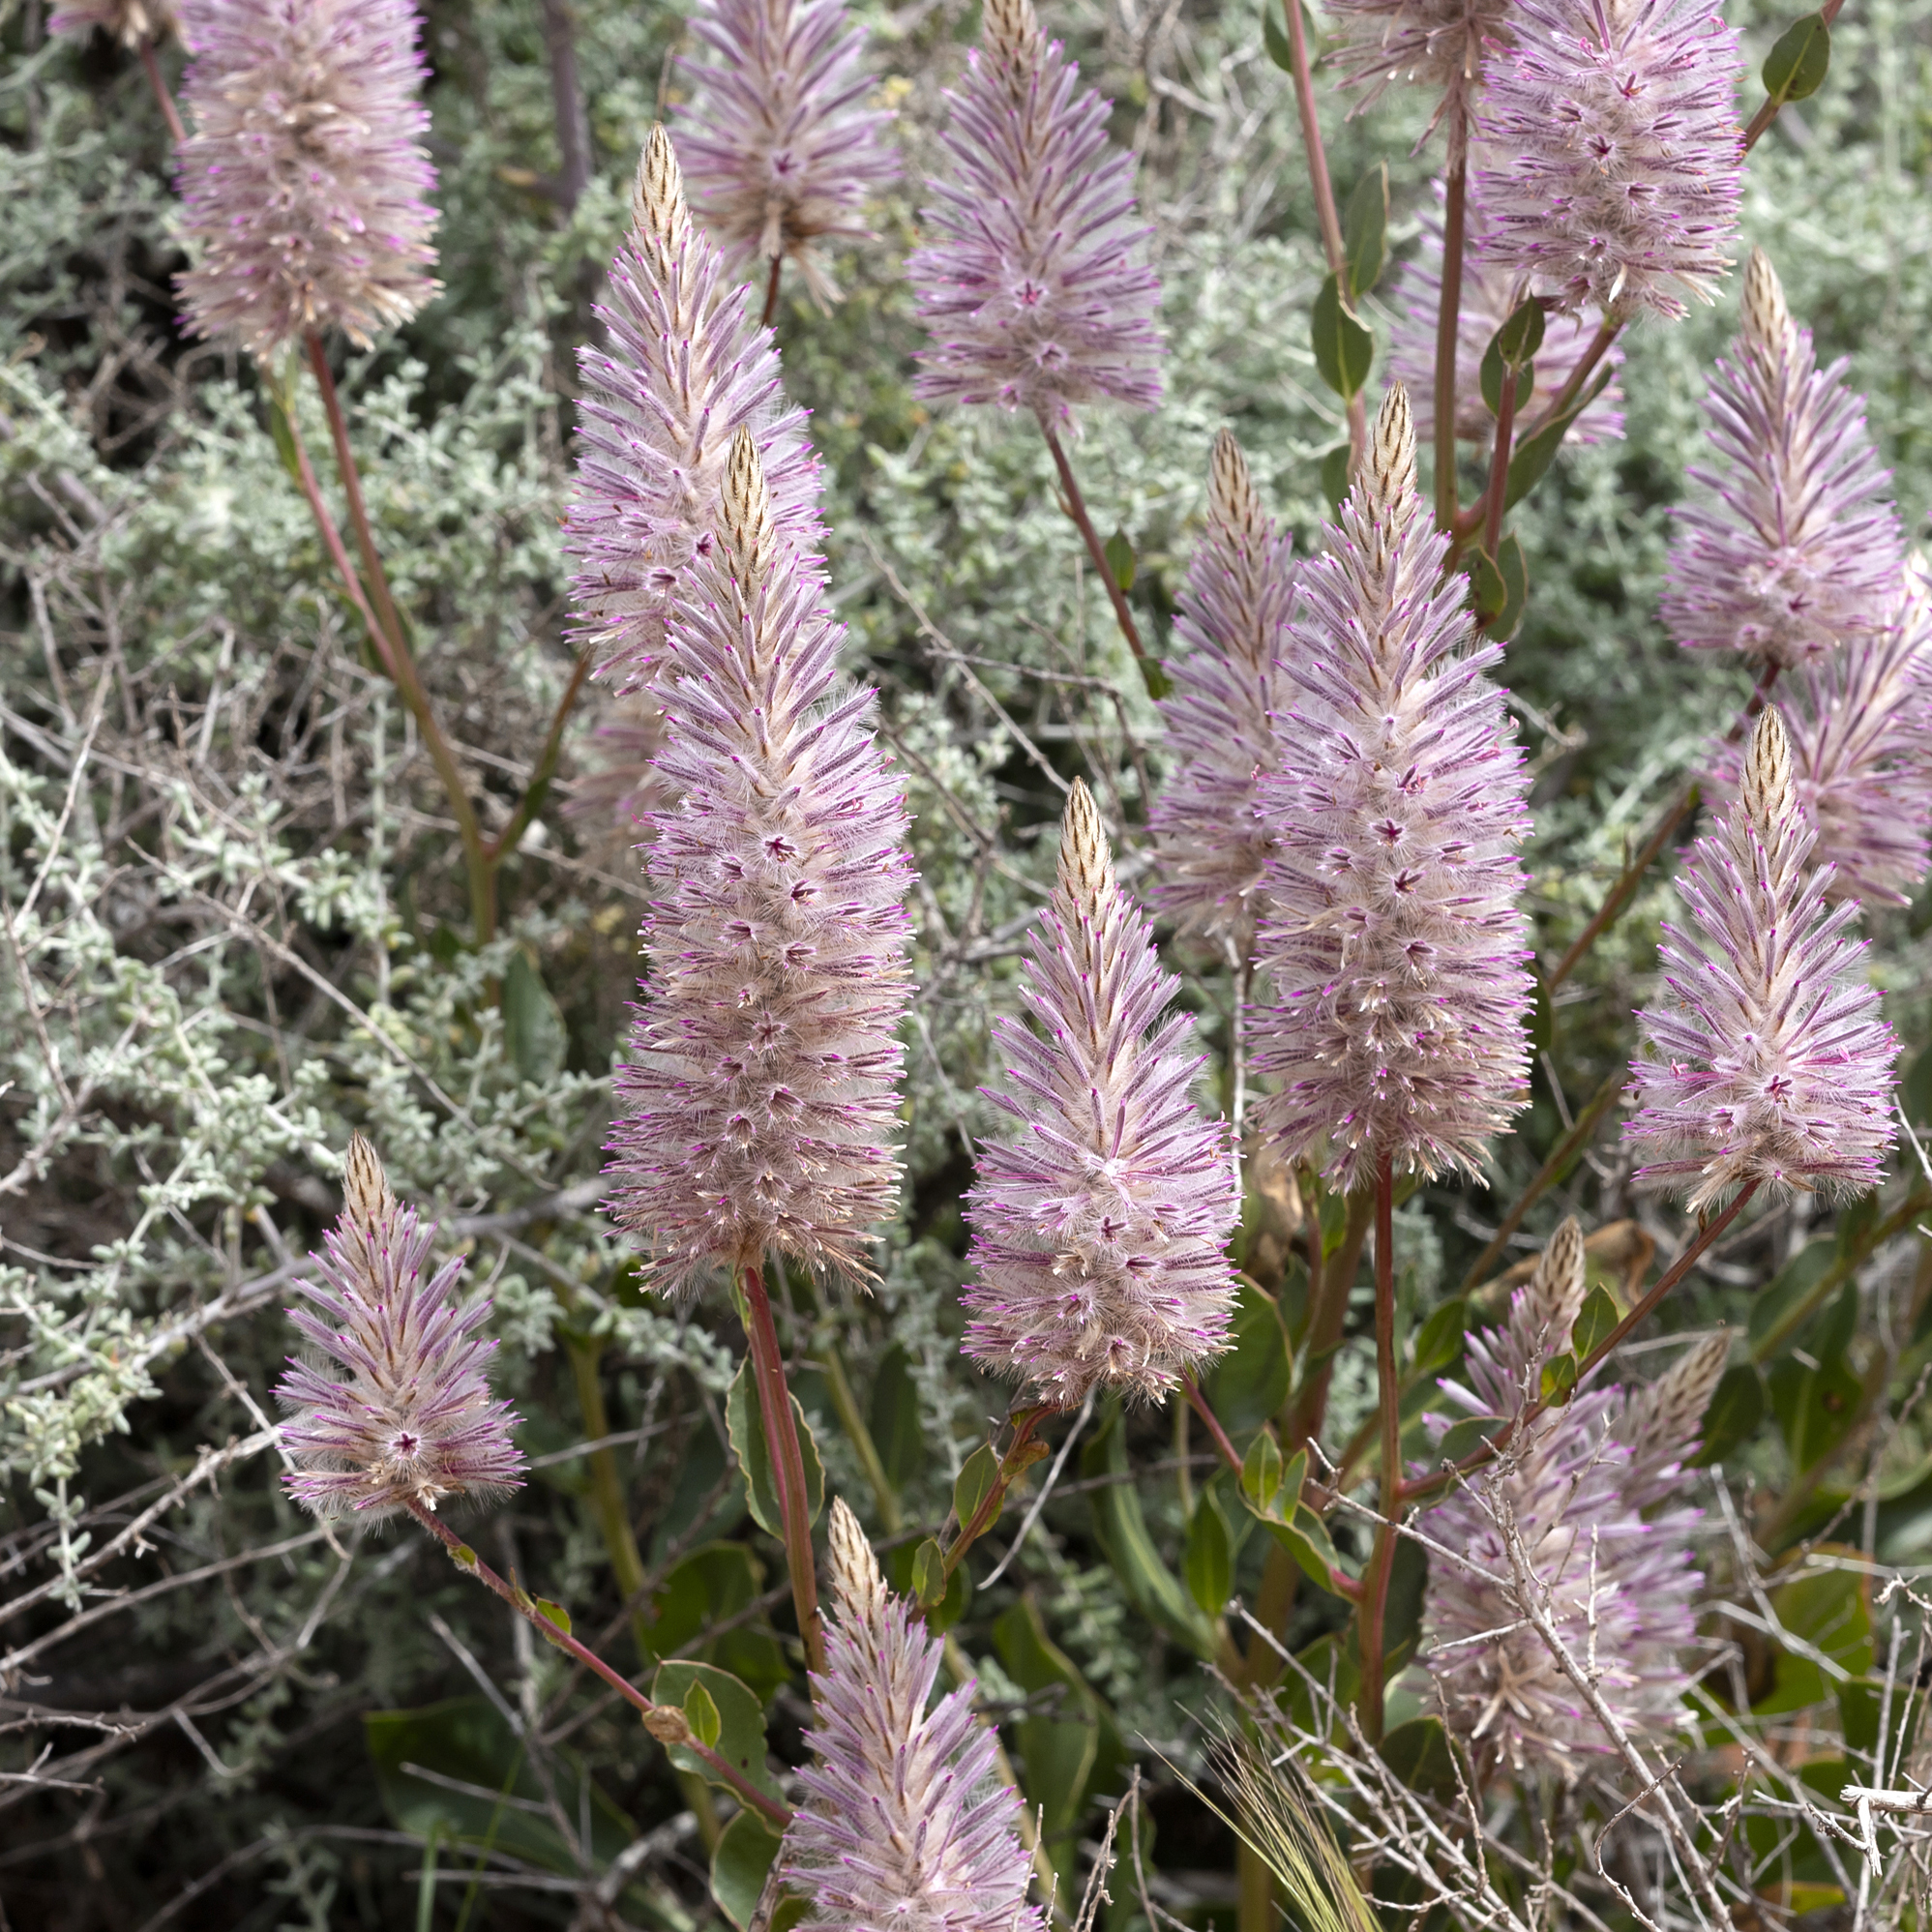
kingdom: Plantae
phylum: Tracheophyta
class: Magnoliopsida
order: Caryophyllales
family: Amaranthaceae
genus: Ptilotus
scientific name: Ptilotus exaltatus
